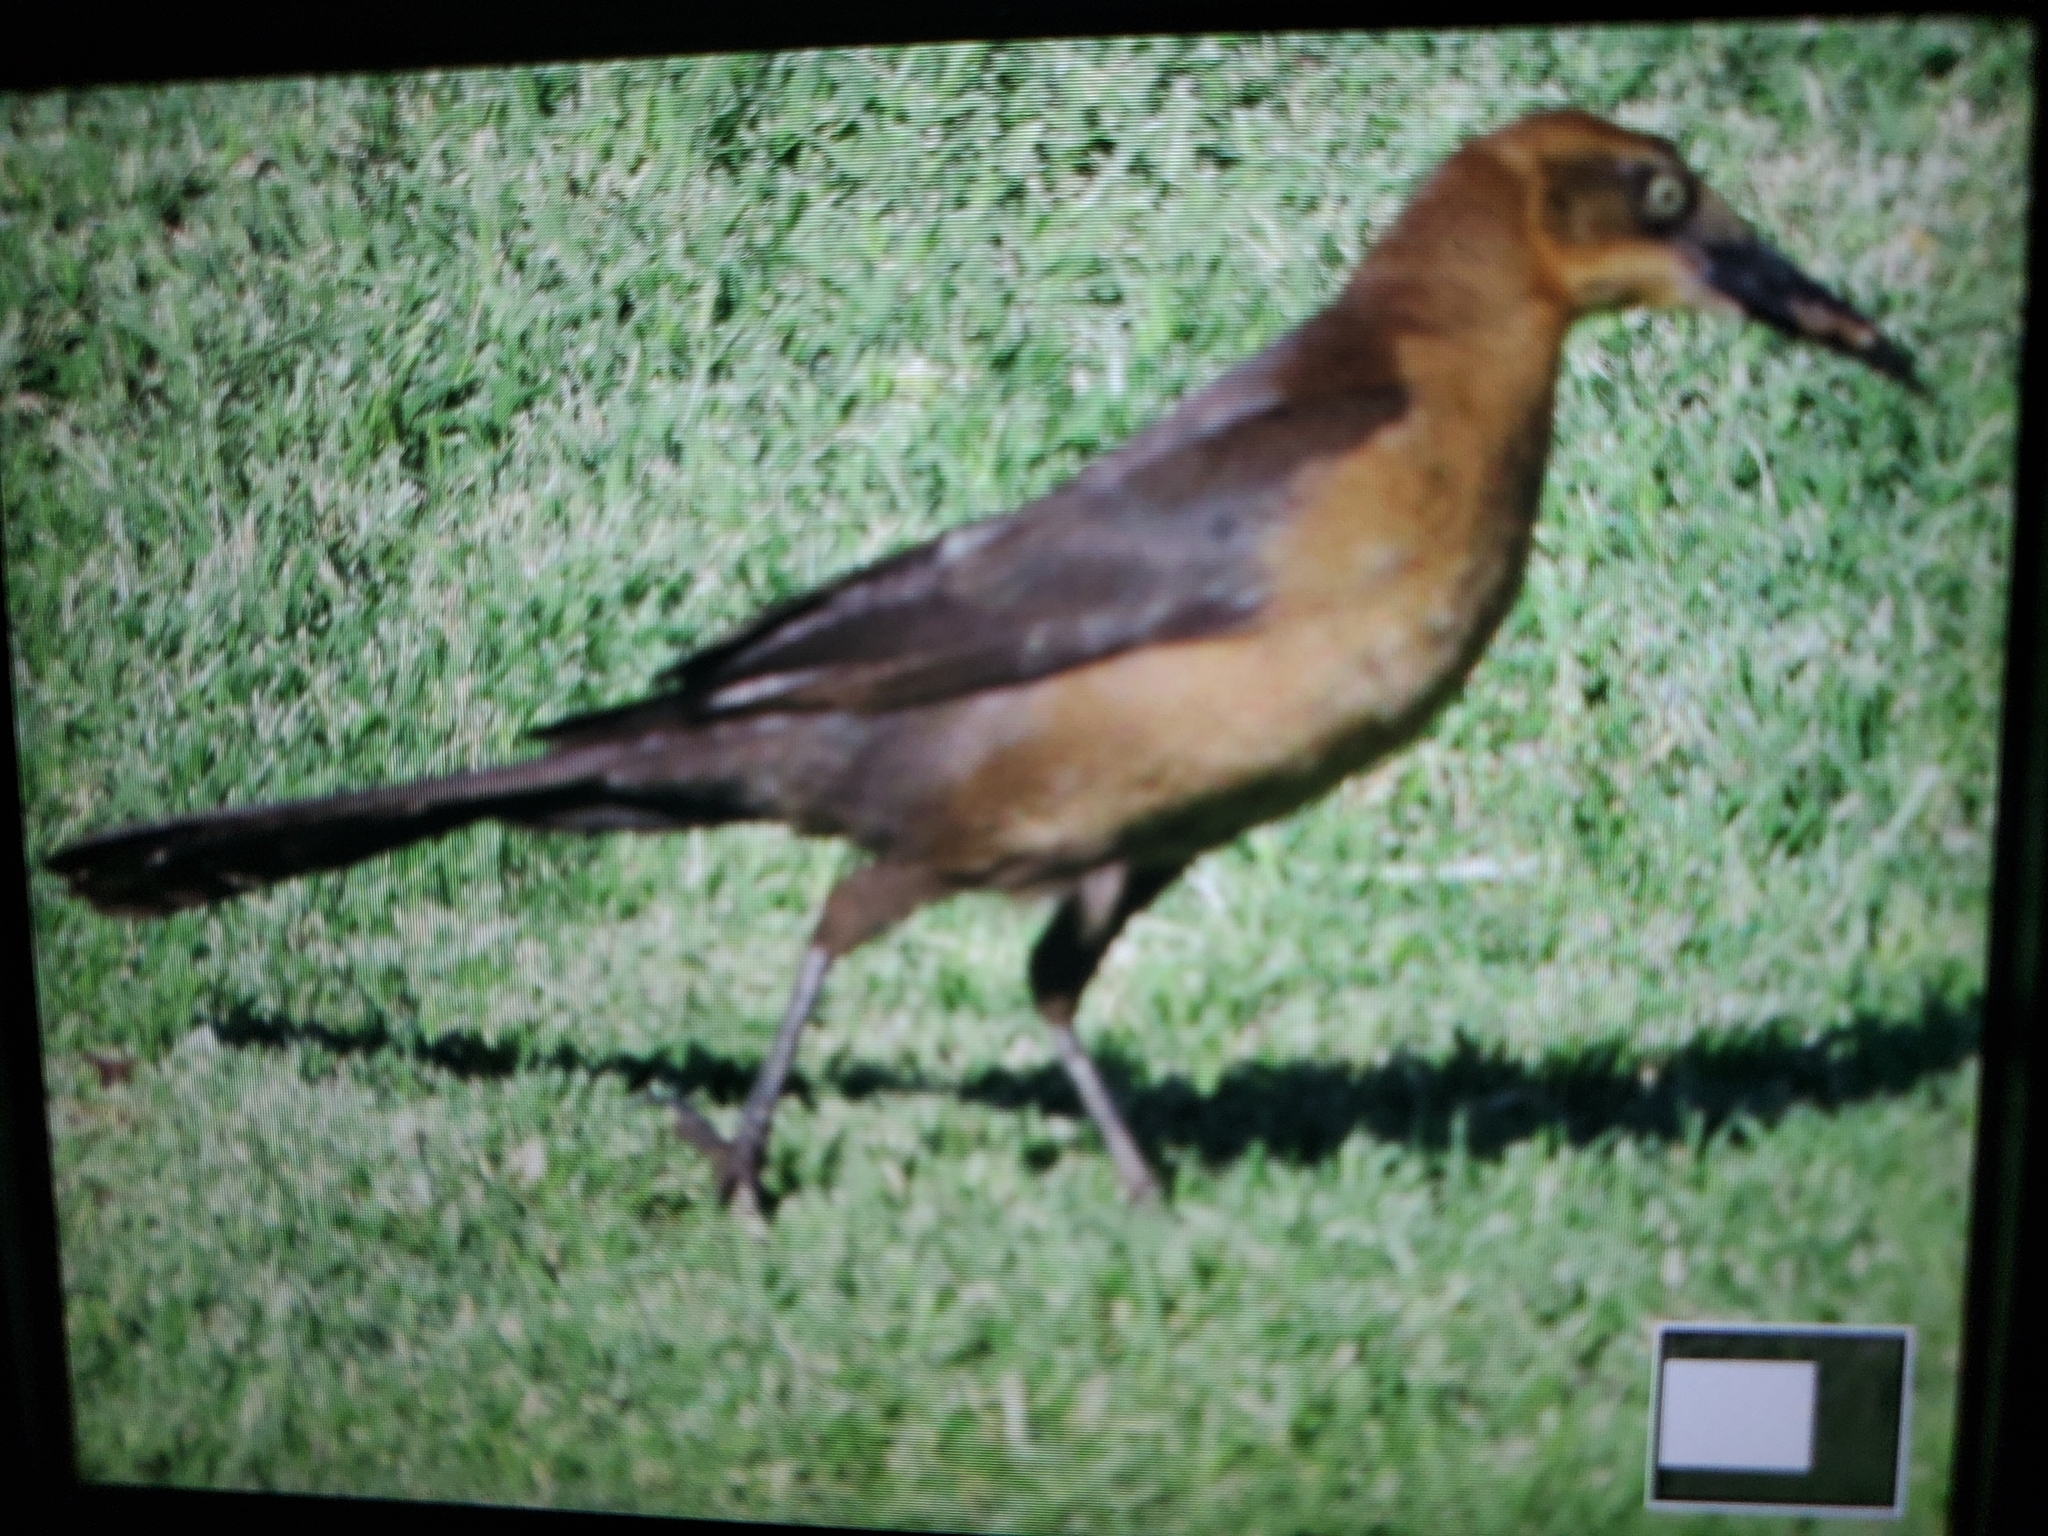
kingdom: Animalia
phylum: Chordata
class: Aves
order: Passeriformes
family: Icteridae
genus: Quiscalus
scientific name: Quiscalus mexicanus
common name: Great-tailed grackle
